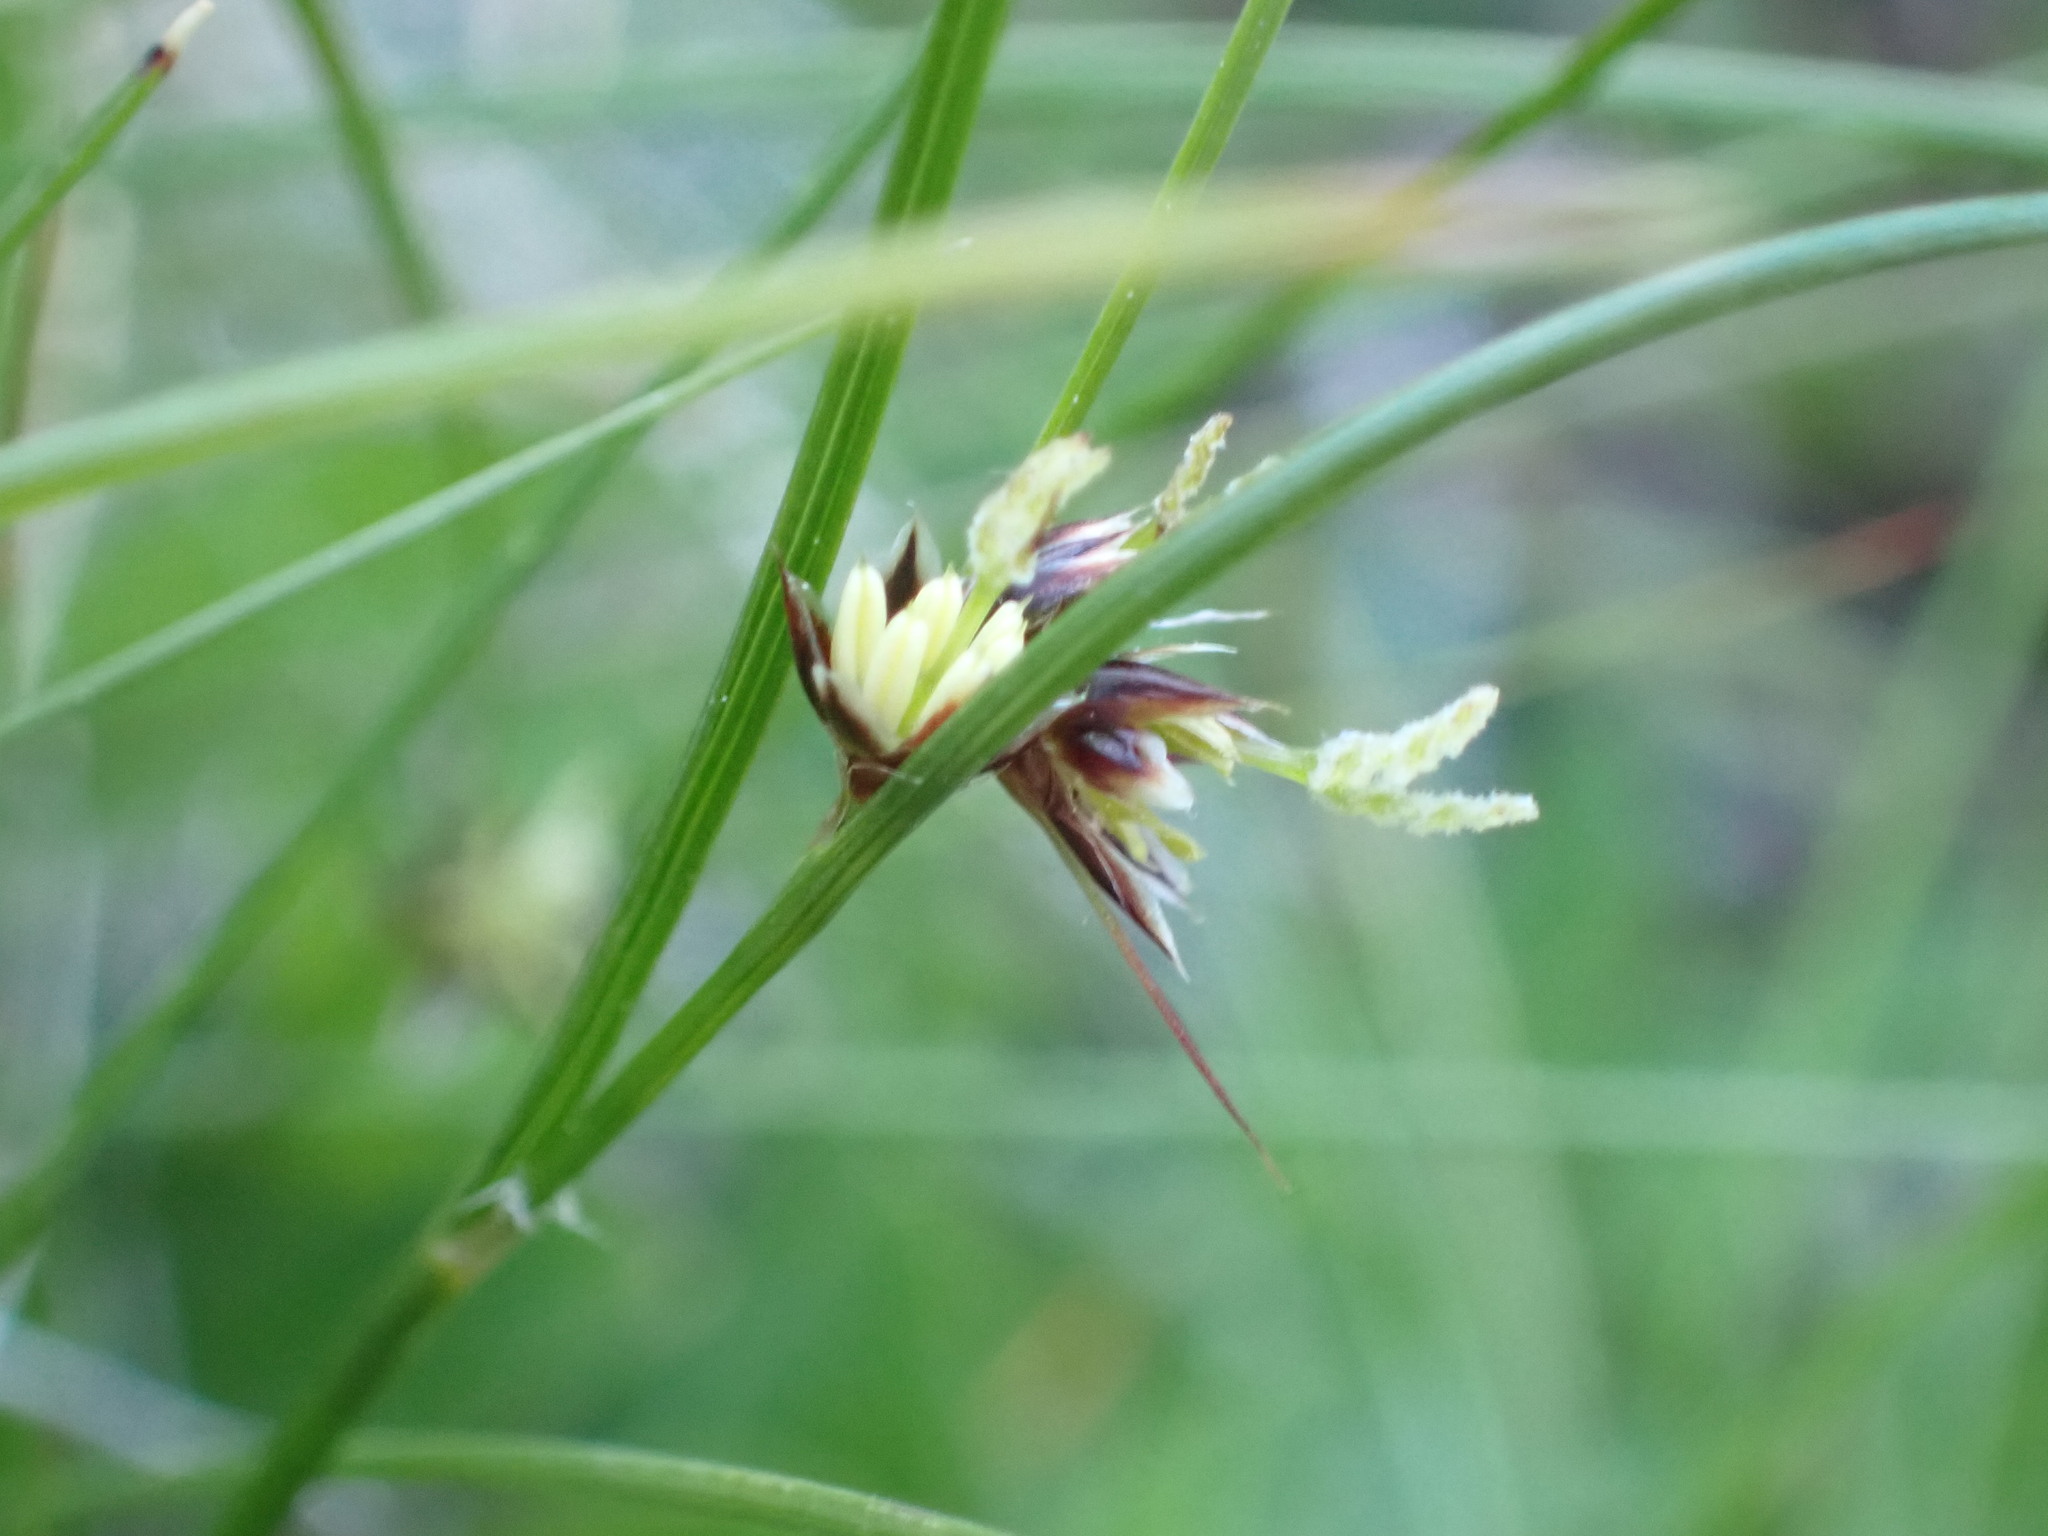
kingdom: Plantae
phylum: Tracheophyta
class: Liliopsida
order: Poales
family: Juncaceae
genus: Oreojuncus
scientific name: Oreojuncus trifidus
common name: Highland rush
